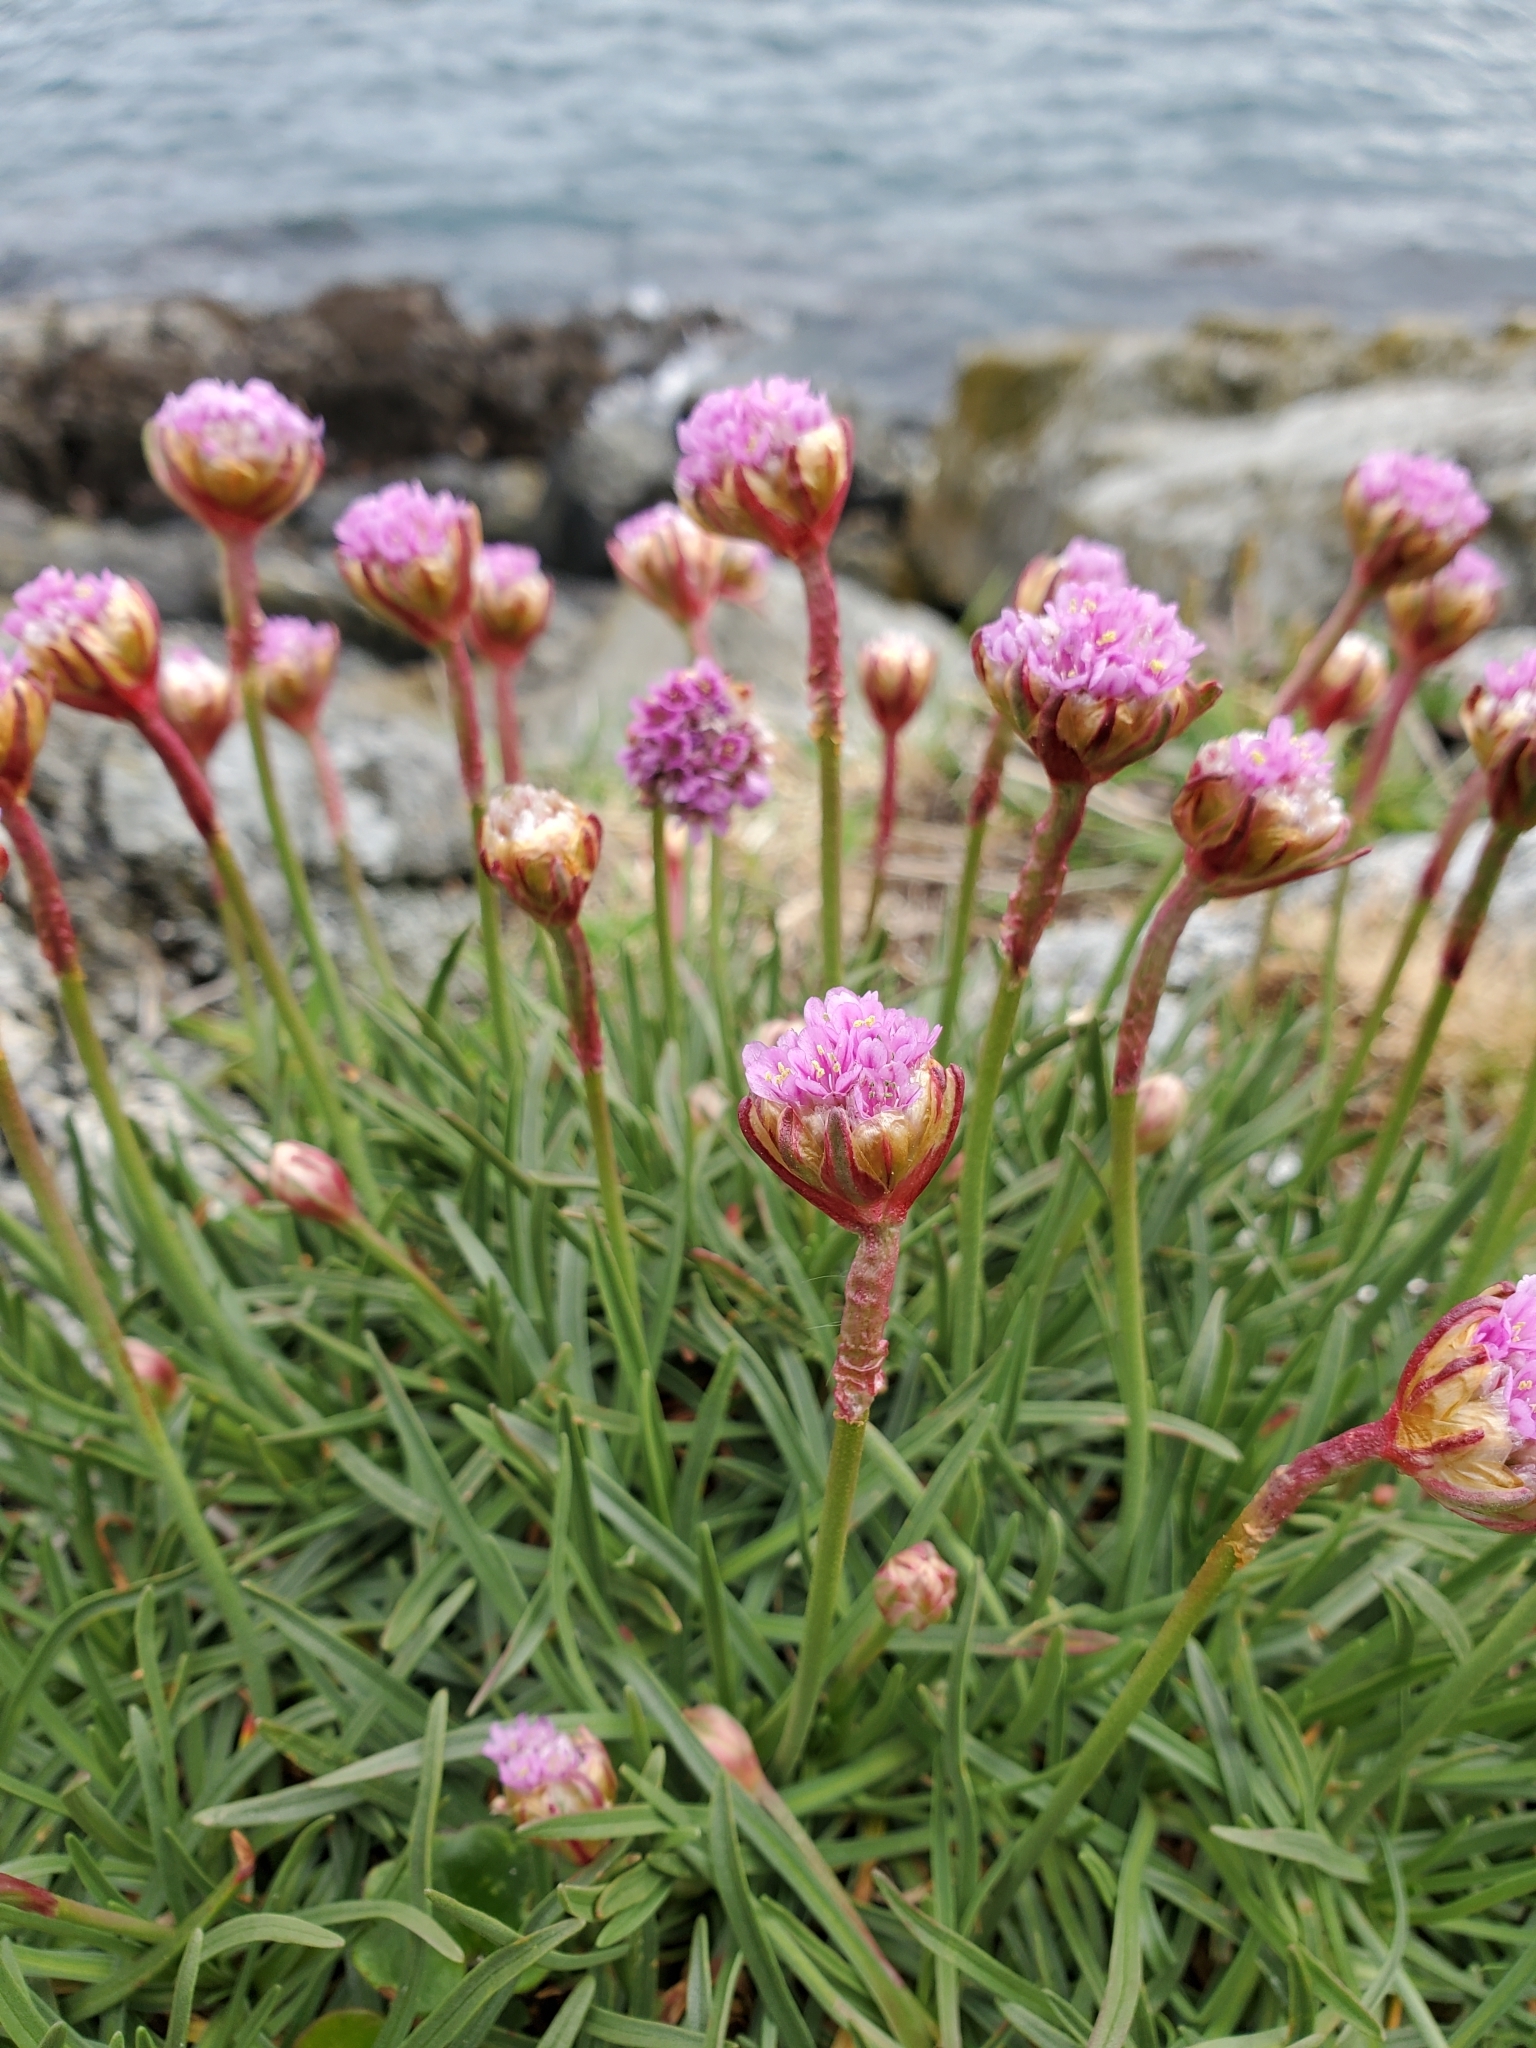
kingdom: Plantae
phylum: Tracheophyta
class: Magnoliopsida
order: Caryophyllales
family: Plumbaginaceae
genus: Armeria
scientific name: Armeria maritima
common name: Thrift
